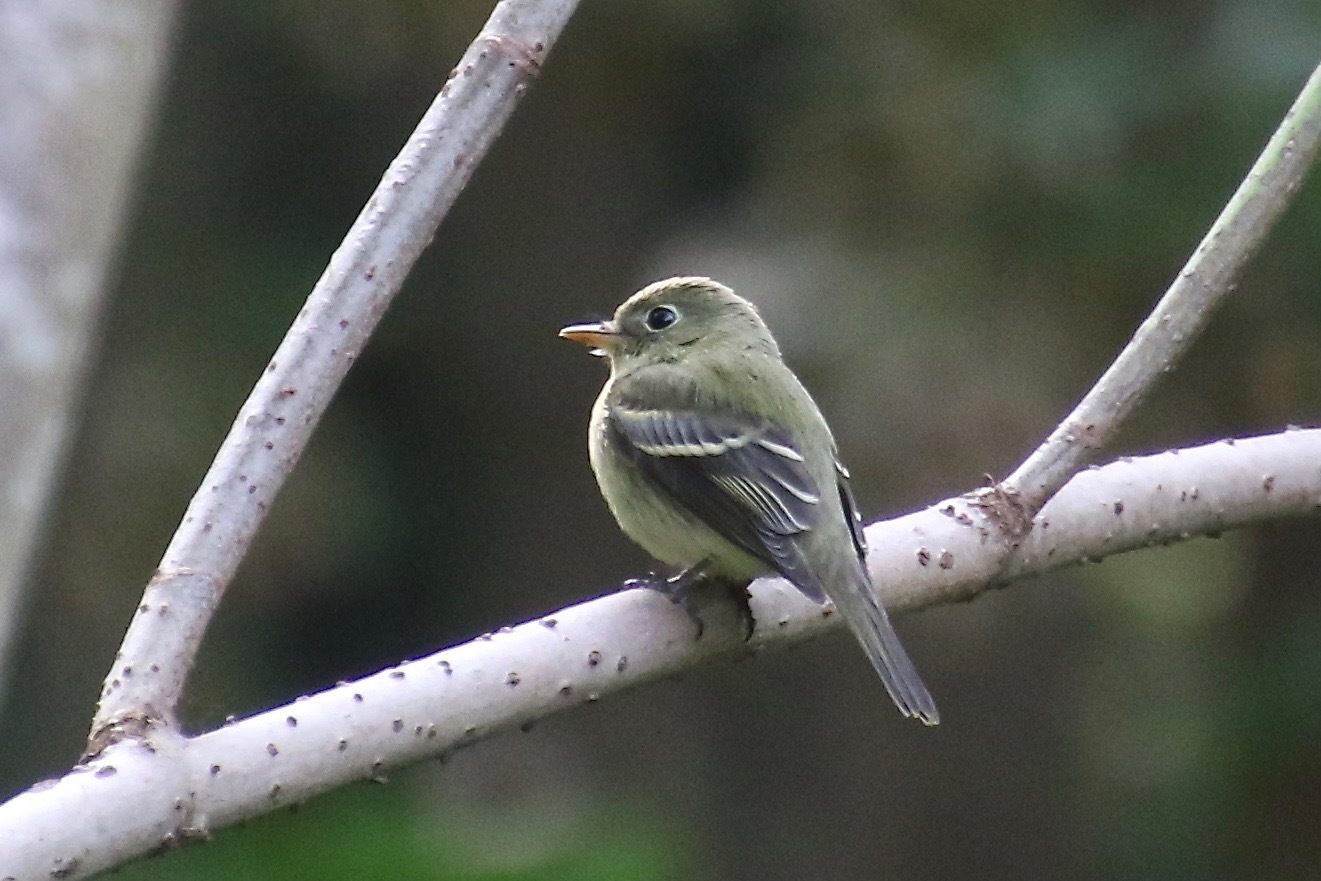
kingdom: Animalia
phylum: Chordata
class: Aves
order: Passeriformes
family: Tyrannidae
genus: Empidonax
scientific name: Empidonax flaviventris
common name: Yellow-bellied flycatcher
